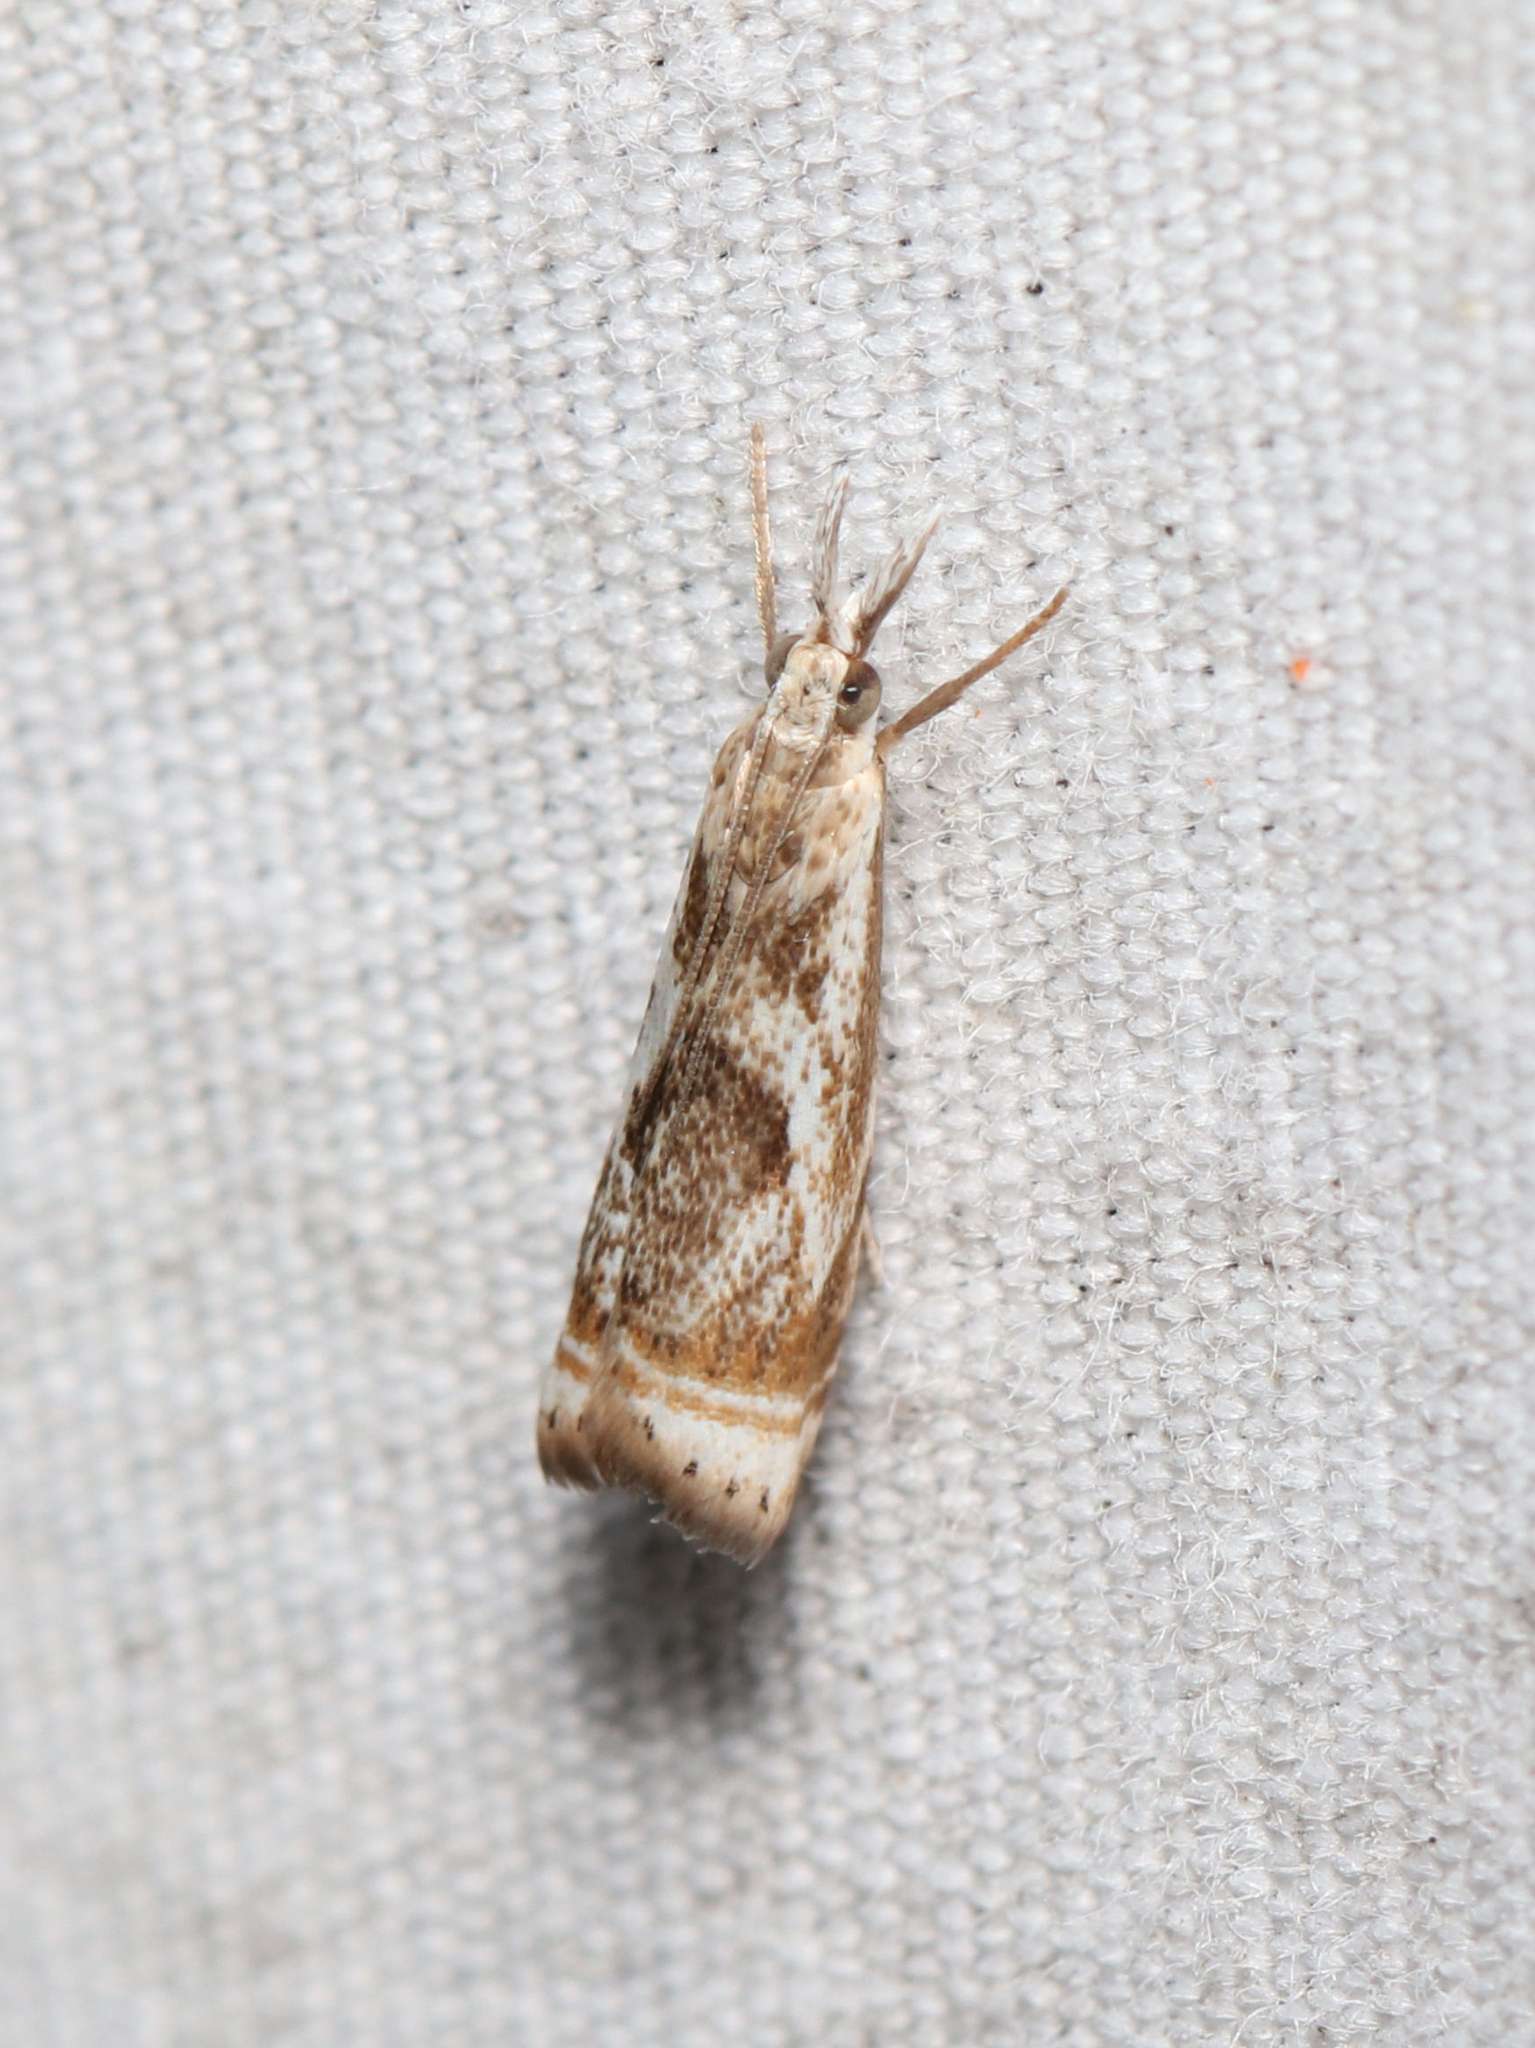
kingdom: Animalia
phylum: Arthropoda
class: Insecta
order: Lepidoptera
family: Crambidae
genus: Microcrambus
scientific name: Microcrambus elegans
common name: Elegant grass-veneer
